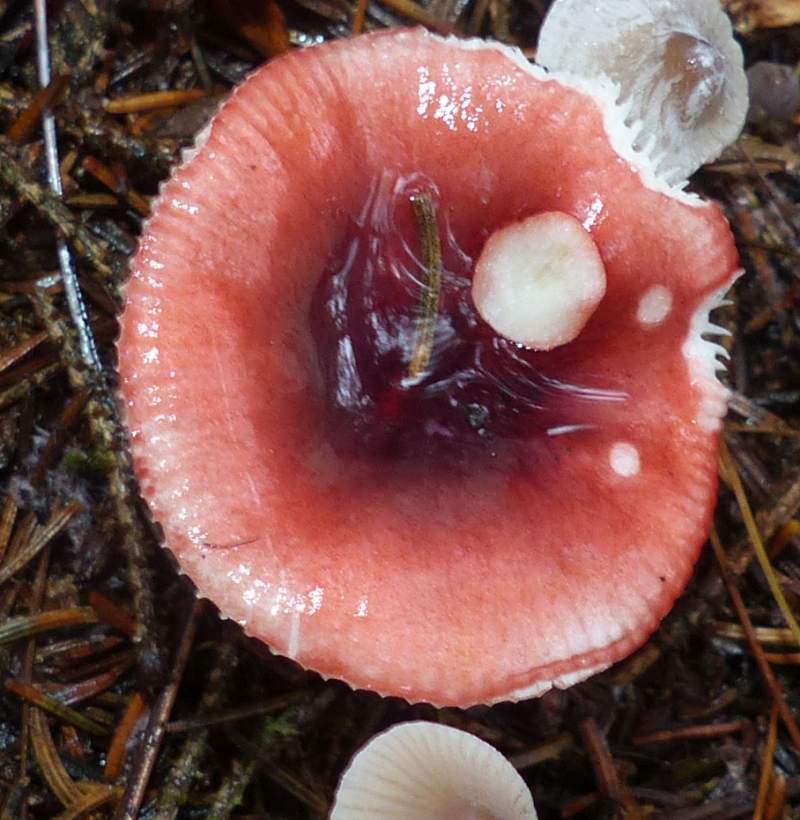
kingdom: Fungi
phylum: Basidiomycota
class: Agaricomycetes
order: Russulales
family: Russulaceae
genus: Russula
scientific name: Russula
